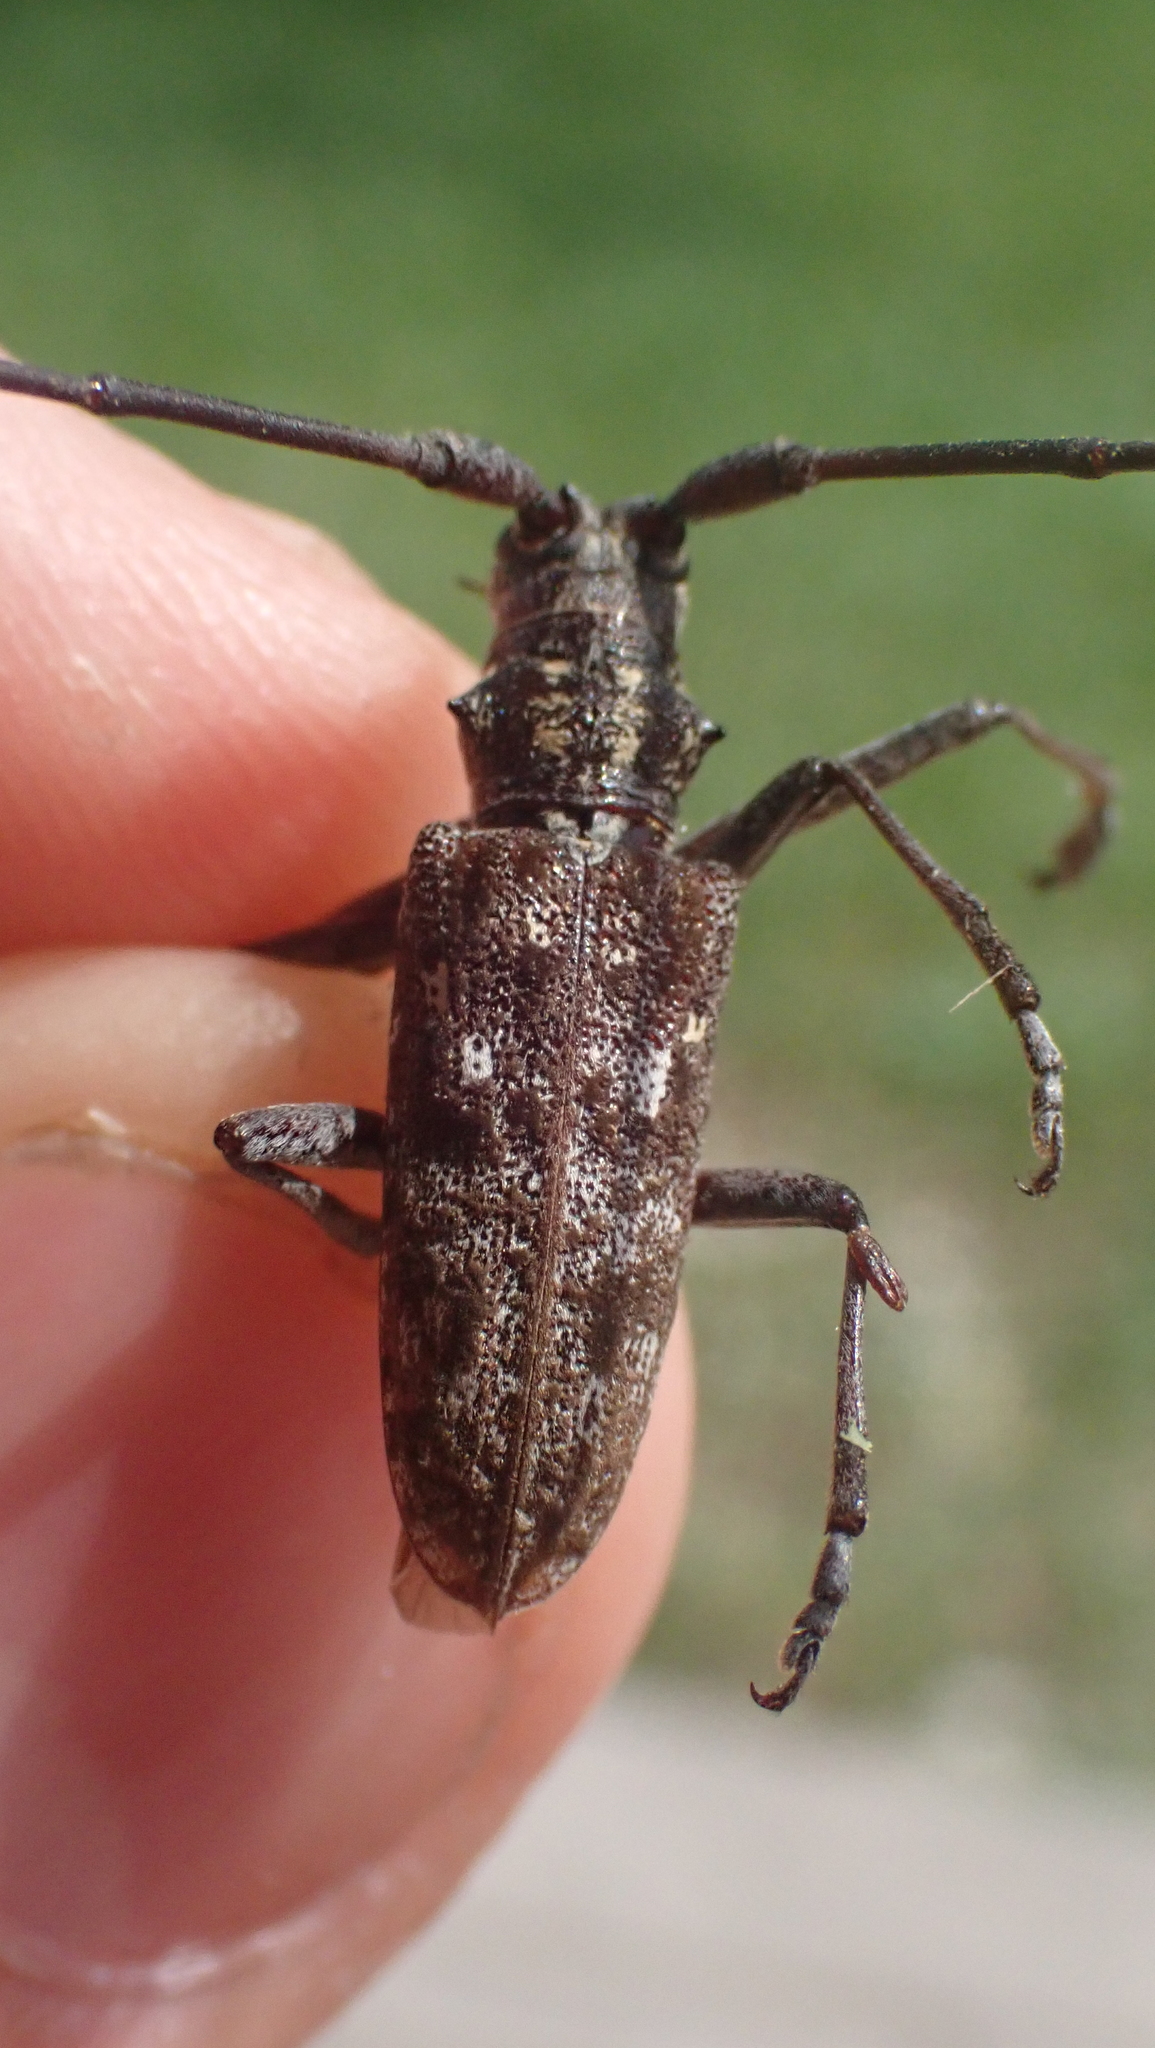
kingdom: Animalia
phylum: Arthropoda
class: Insecta
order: Coleoptera
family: Cerambycidae
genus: Monochamus
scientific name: Monochamus carolinensis
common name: Carolina pine sawyer
